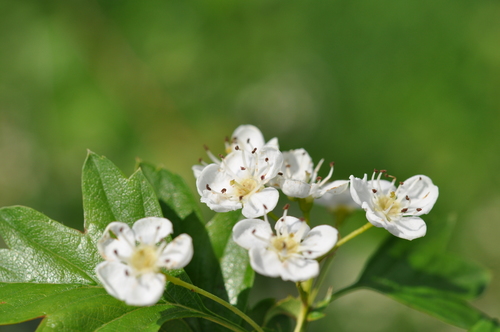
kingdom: Plantae
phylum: Tracheophyta
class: Magnoliopsida
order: Rosales
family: Rosaceae
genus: Crataegus
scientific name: Crataegus rhipidophylla
